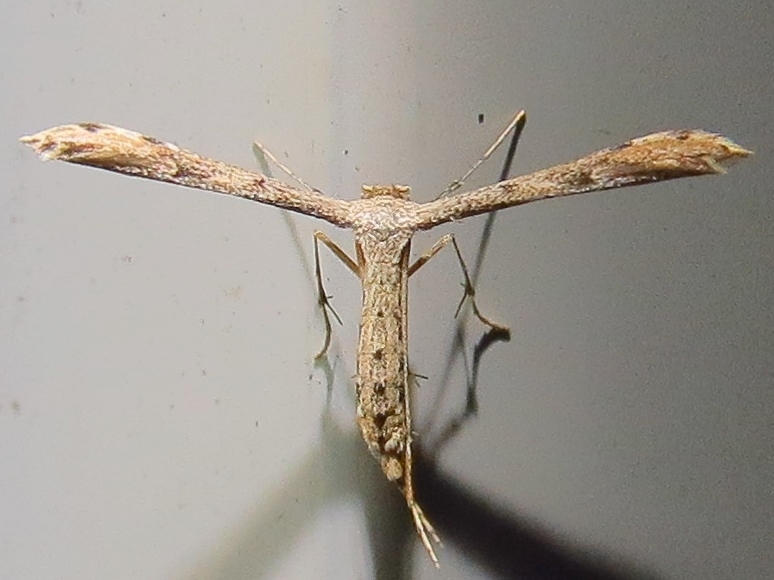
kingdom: Animalia
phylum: Arthropoda
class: Insecta
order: Lepidoptera
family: Pterophoridae
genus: Adaina
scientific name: Adaina ambrosiae
